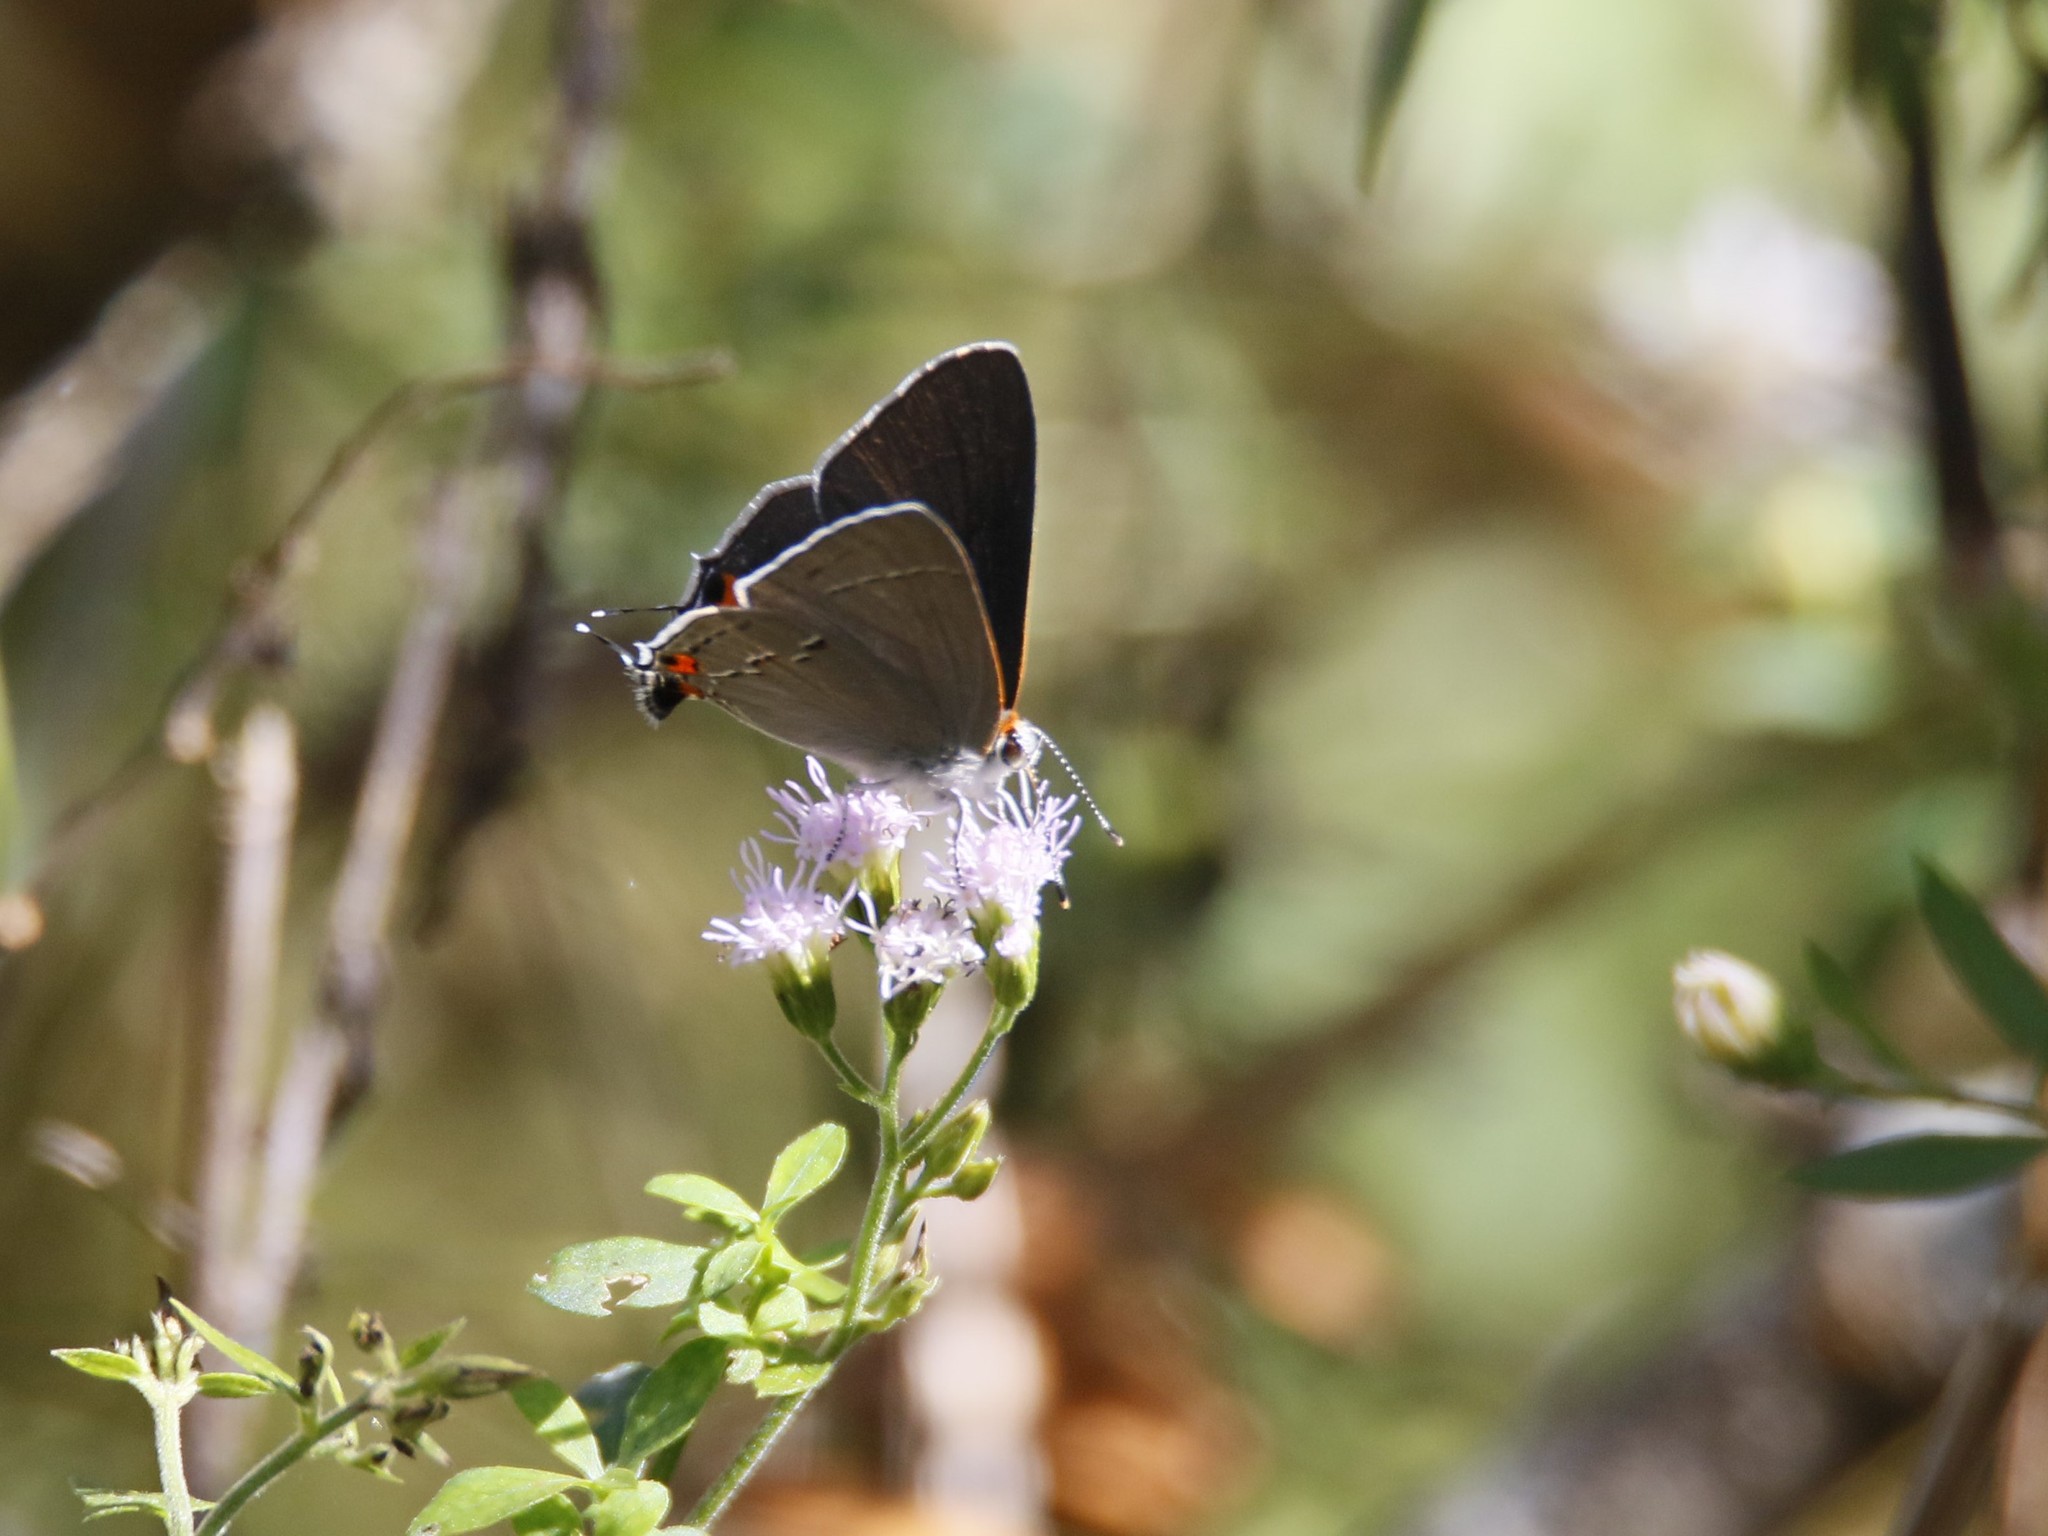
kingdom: Animalia
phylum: Arthropoda
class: Insecta
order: Lepidoptera
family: Lycaenidae
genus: Strymon
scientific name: Strymon melinus
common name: Gray hairstreak
